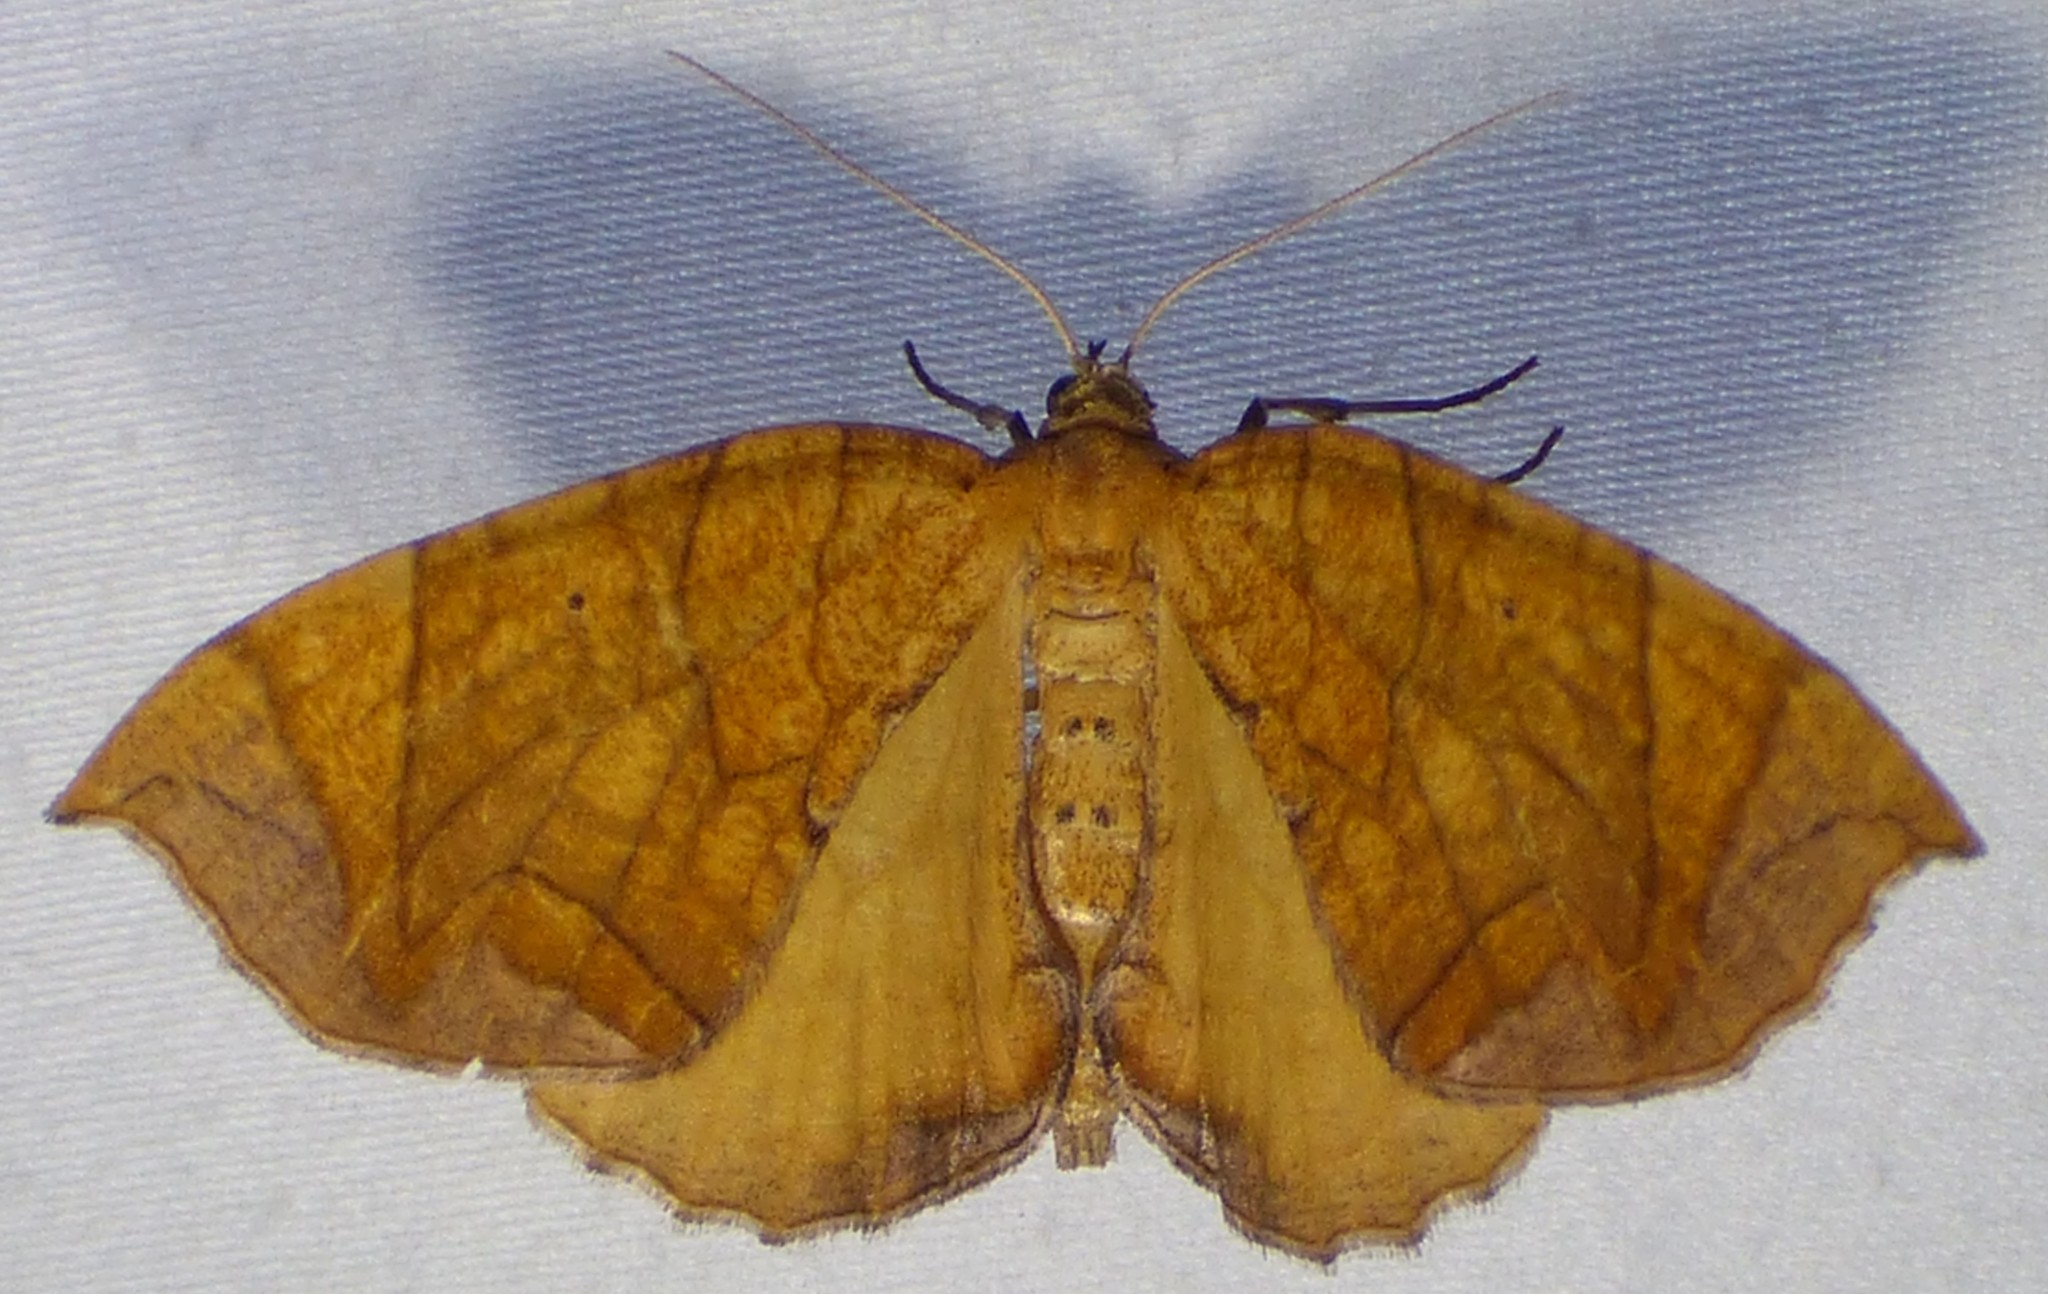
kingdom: Animalia
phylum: Arthropoda
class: Insecta
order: Lepidoptera
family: Geometridae
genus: Eulithis
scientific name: Eulithis
